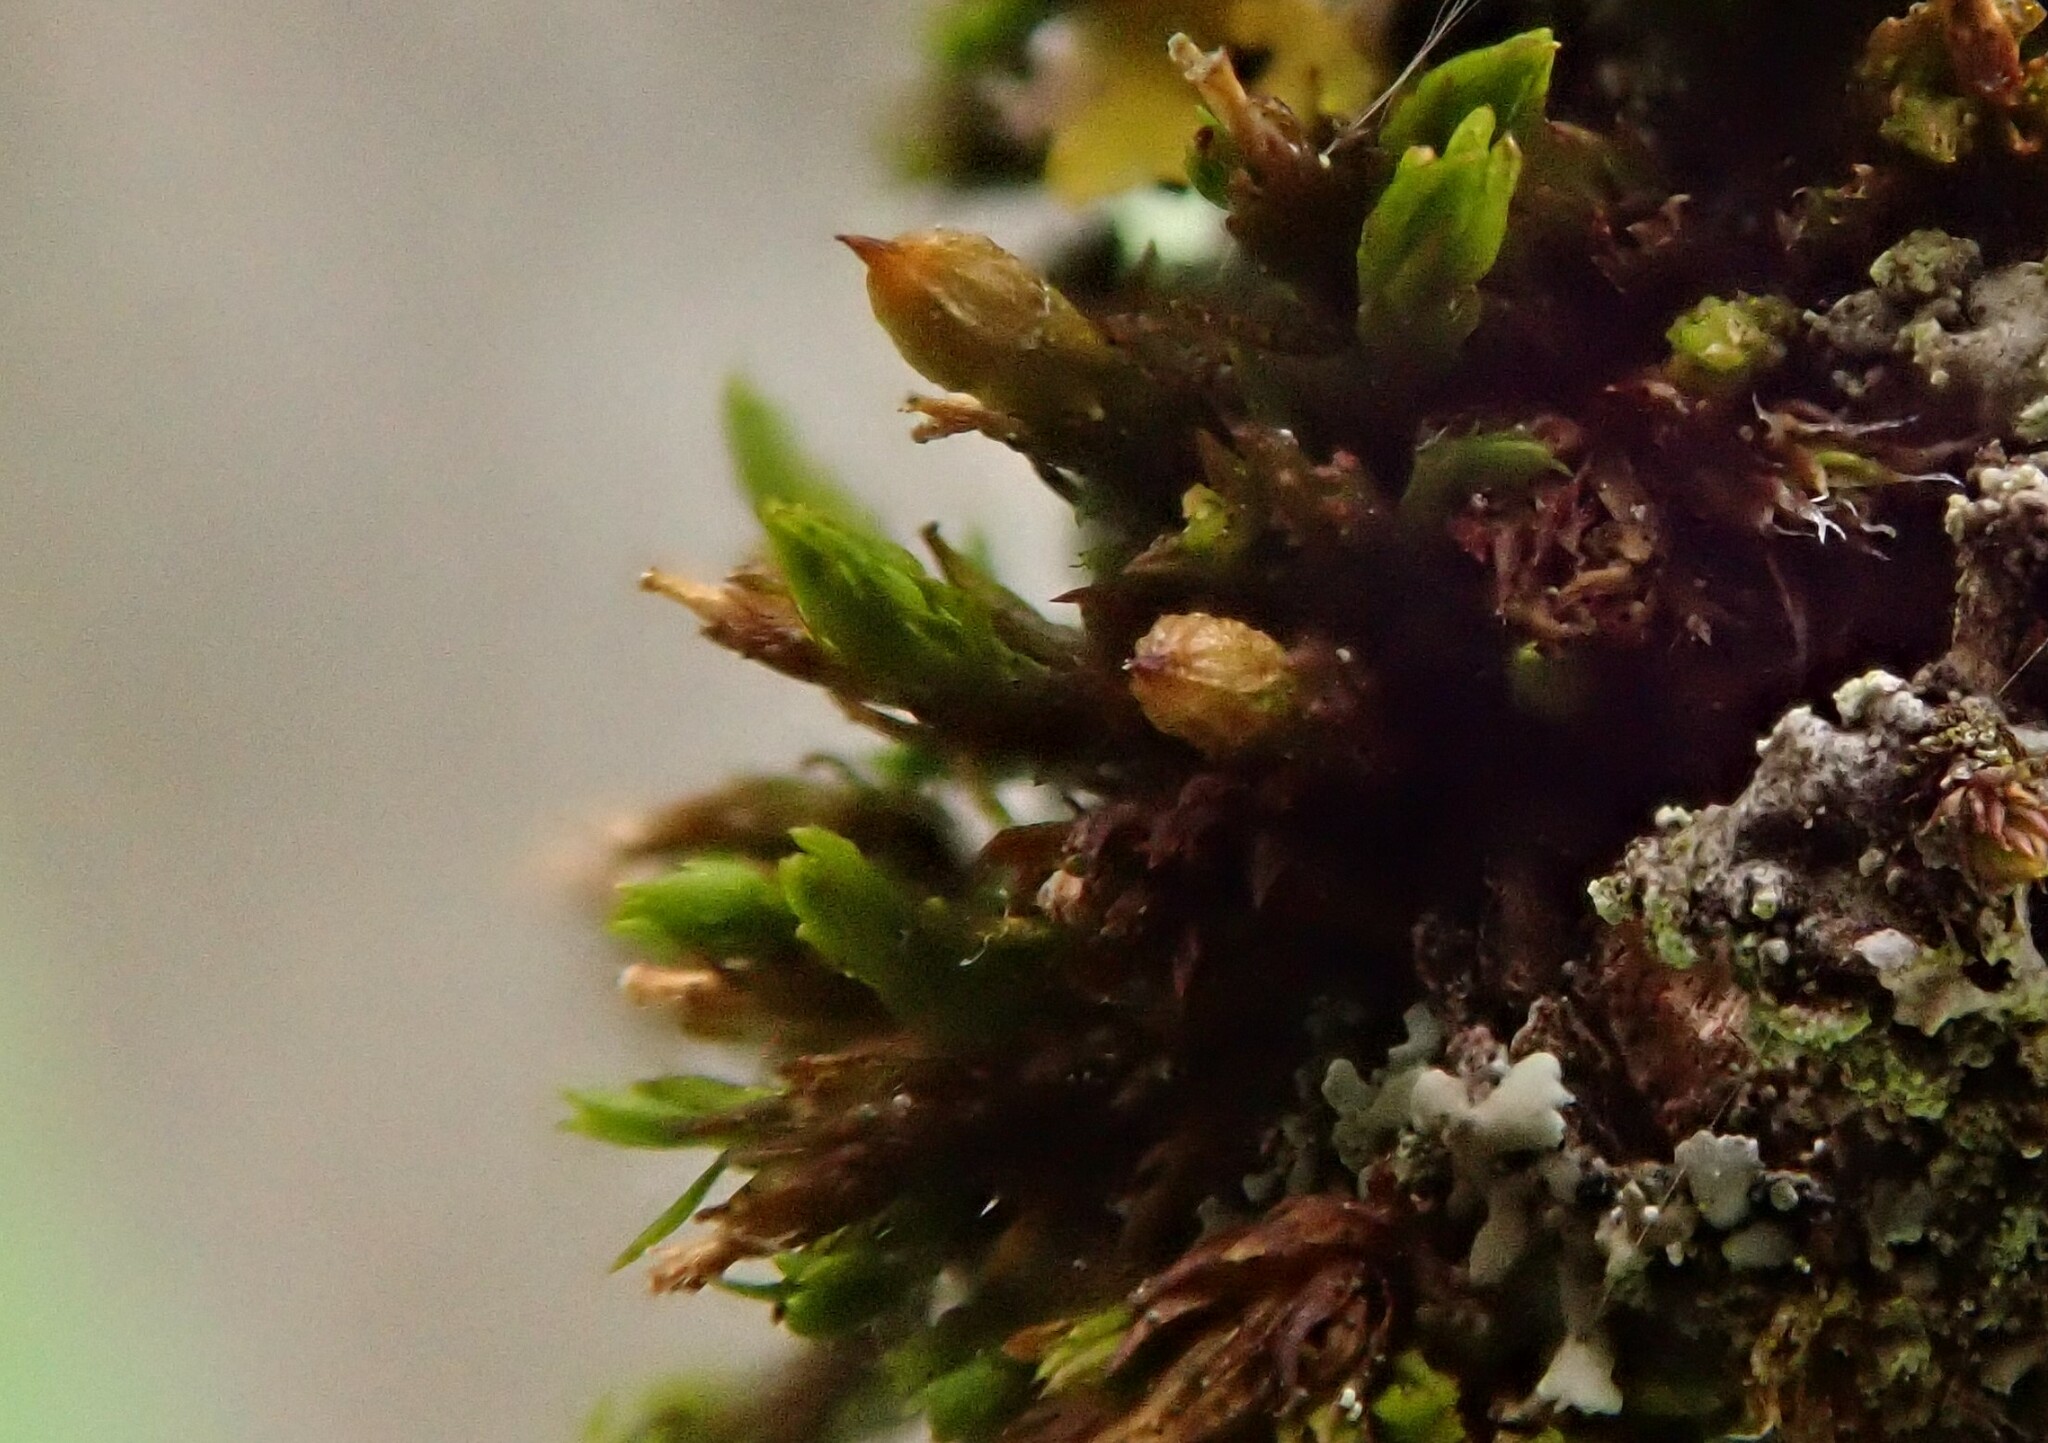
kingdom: Plantae
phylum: Bryophyta
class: Bryopsida
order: Orthotrichales
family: Orthotrichaceae
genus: Orthotrichum
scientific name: Orthotrichum pumilum
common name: Dwarf bristle moss
